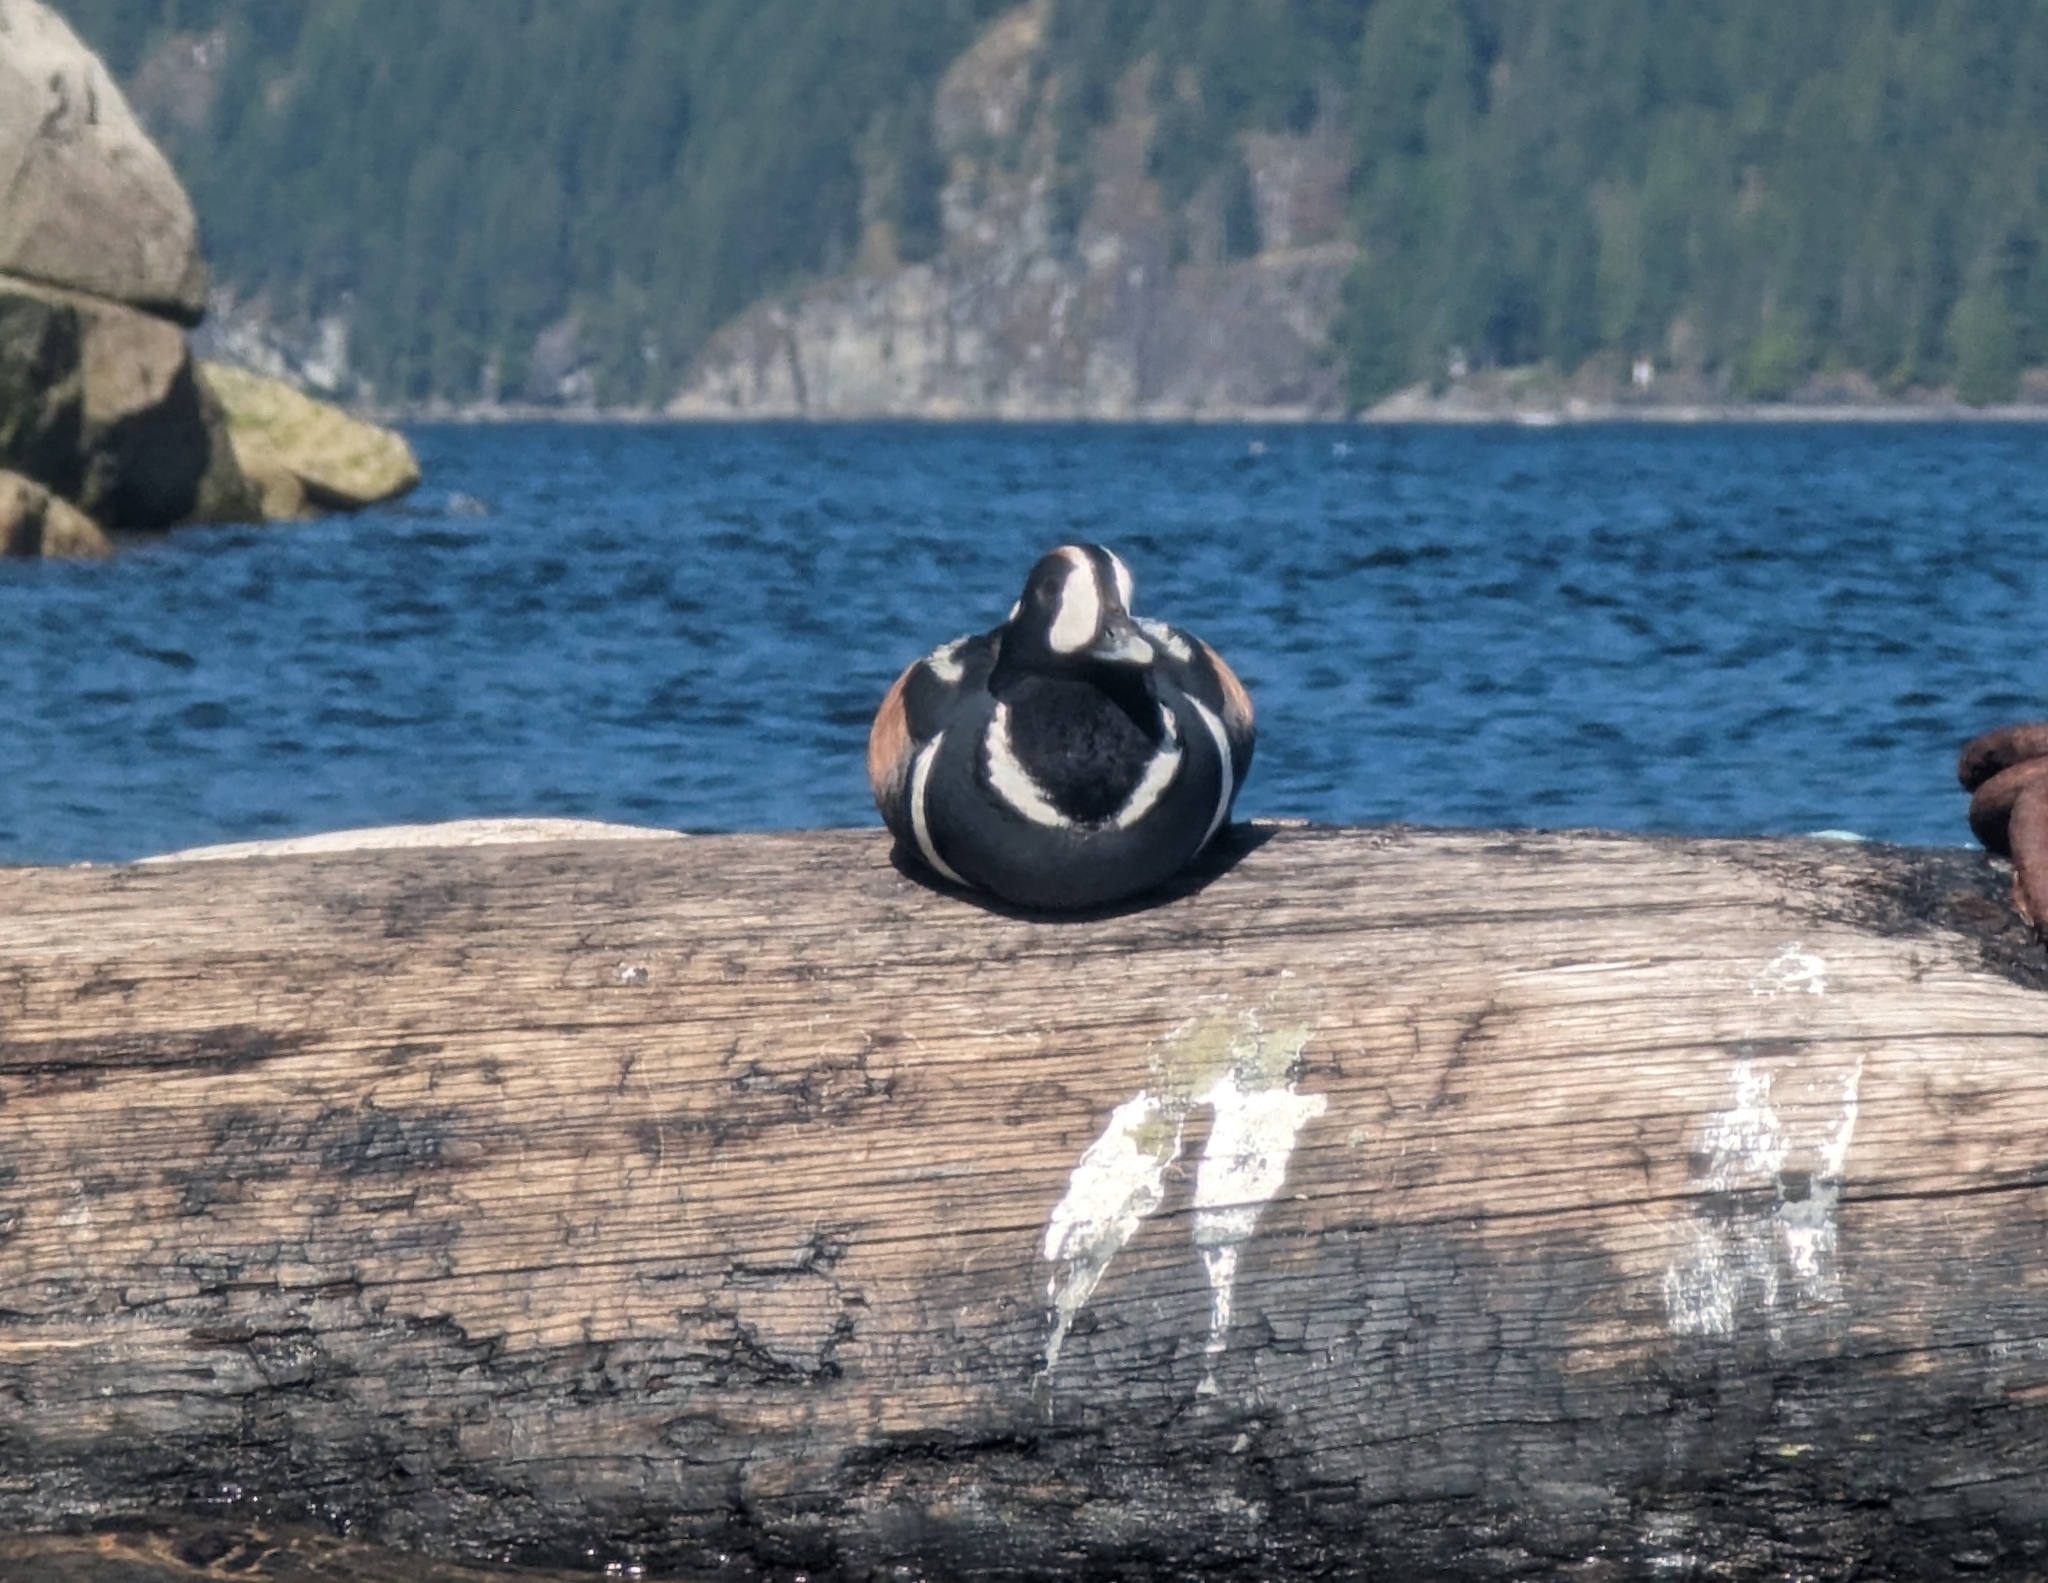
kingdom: Animalia
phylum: Chordata
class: Aves
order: Anseriformes
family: Anatidae
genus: Histrionicus
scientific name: Histrionicus histrionicus
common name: Harlequin duck
